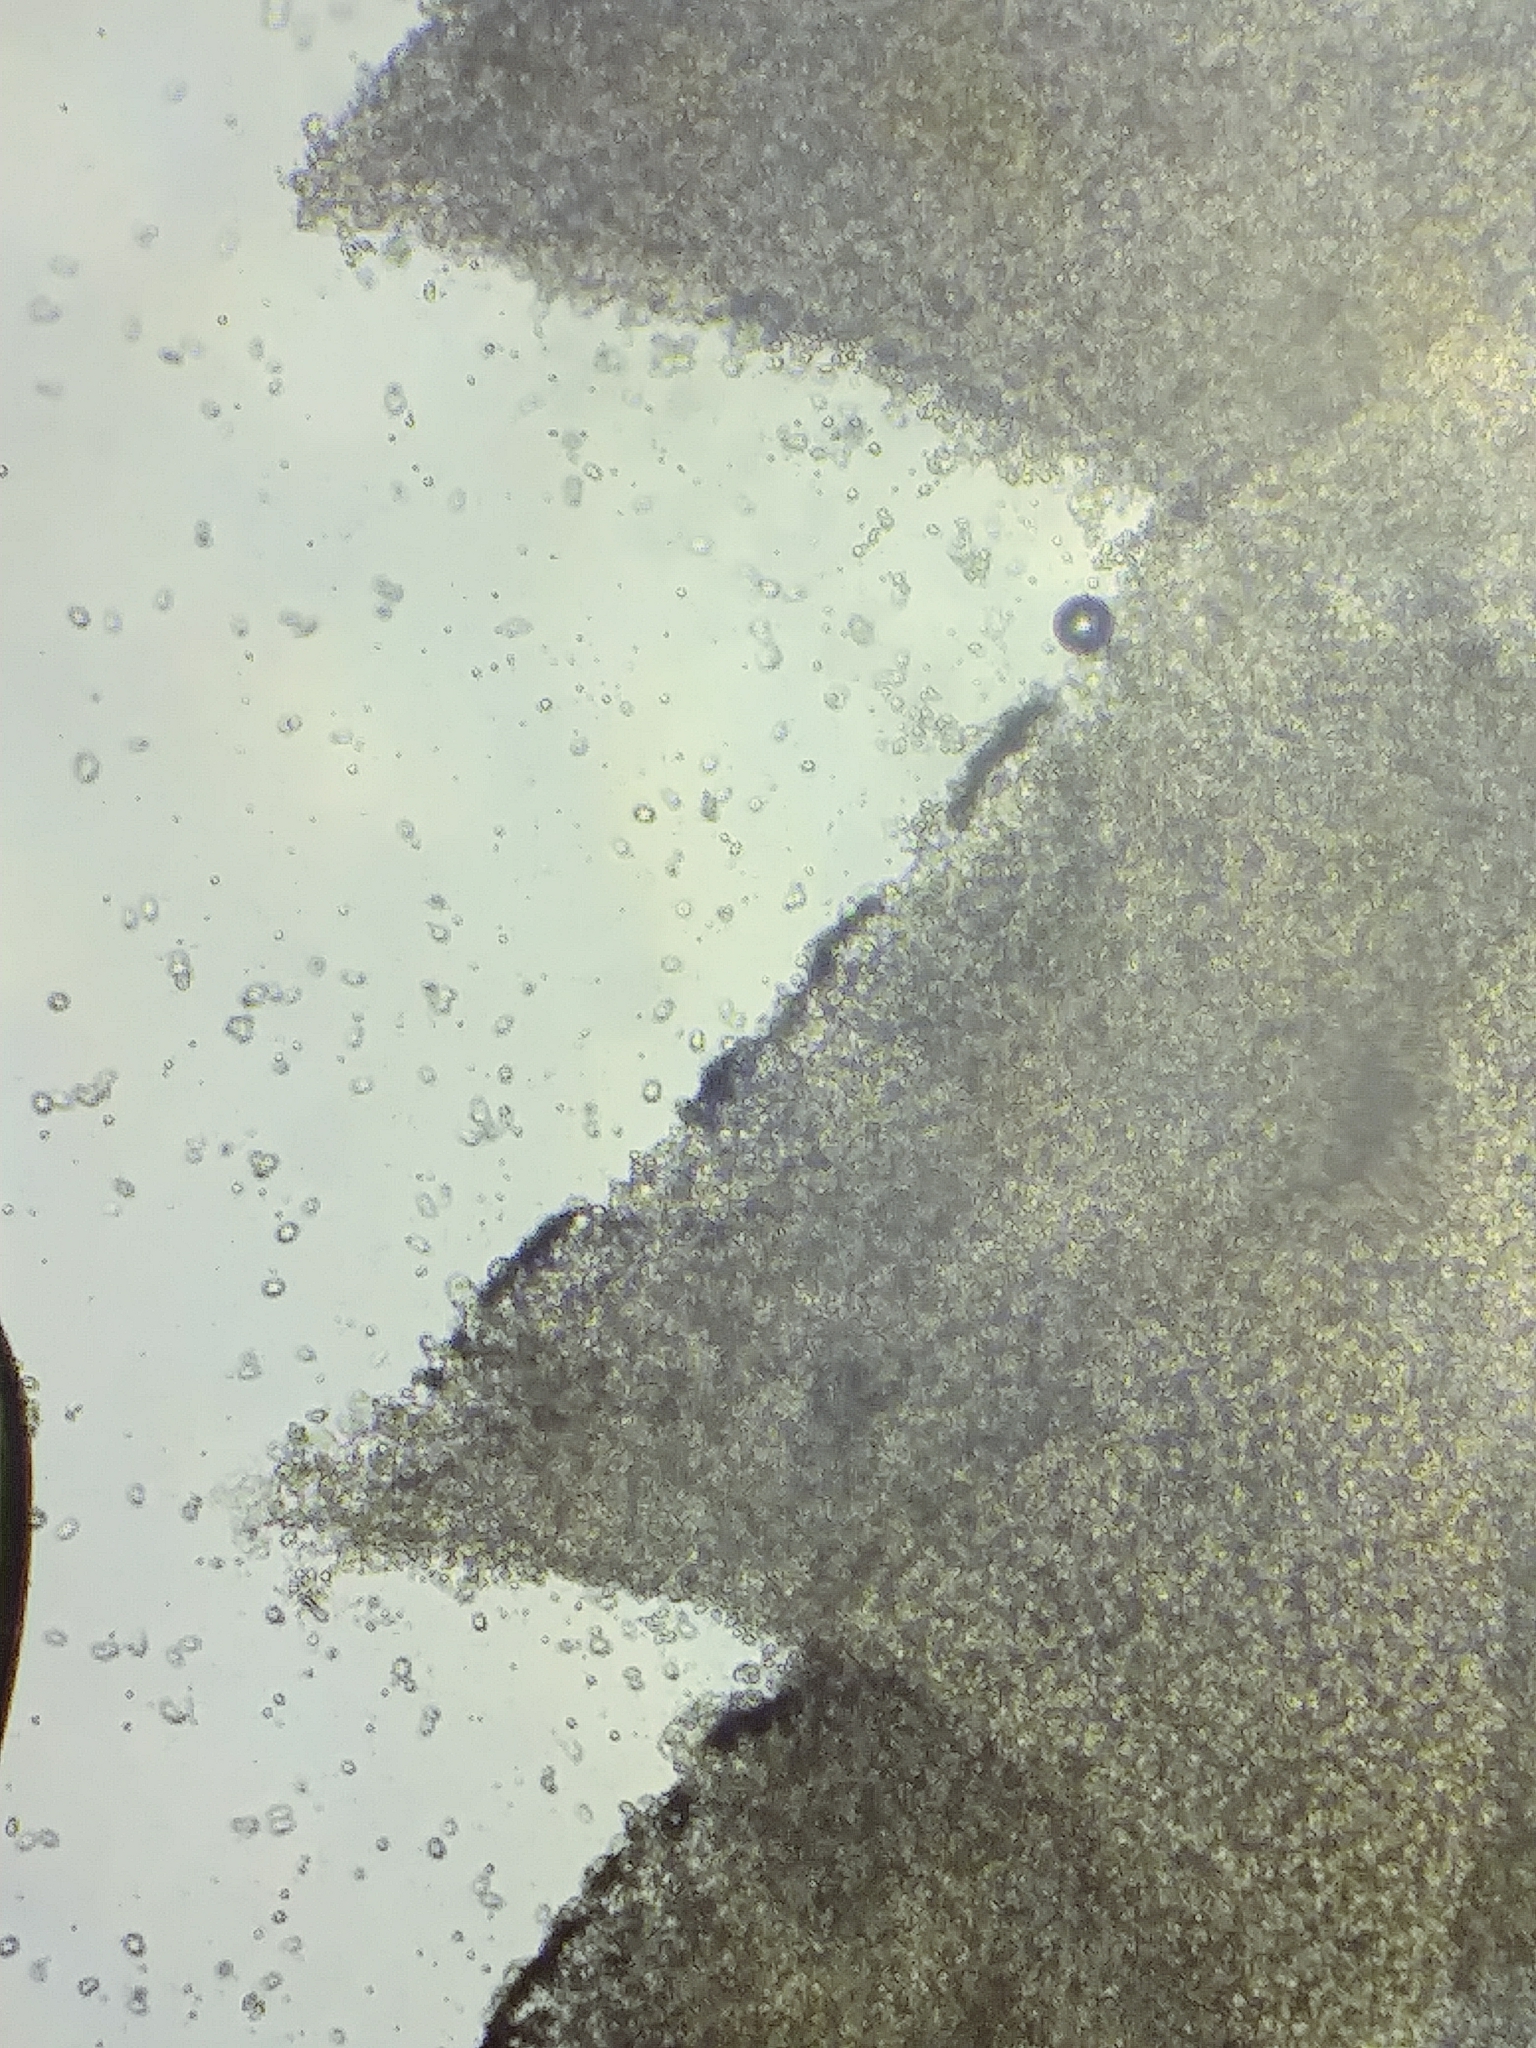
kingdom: Fungi
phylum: Basidiomycota
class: Agaricomycetes
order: Agaricales
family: Mycenaceae
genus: Mycena
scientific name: Mycena alphitophora
